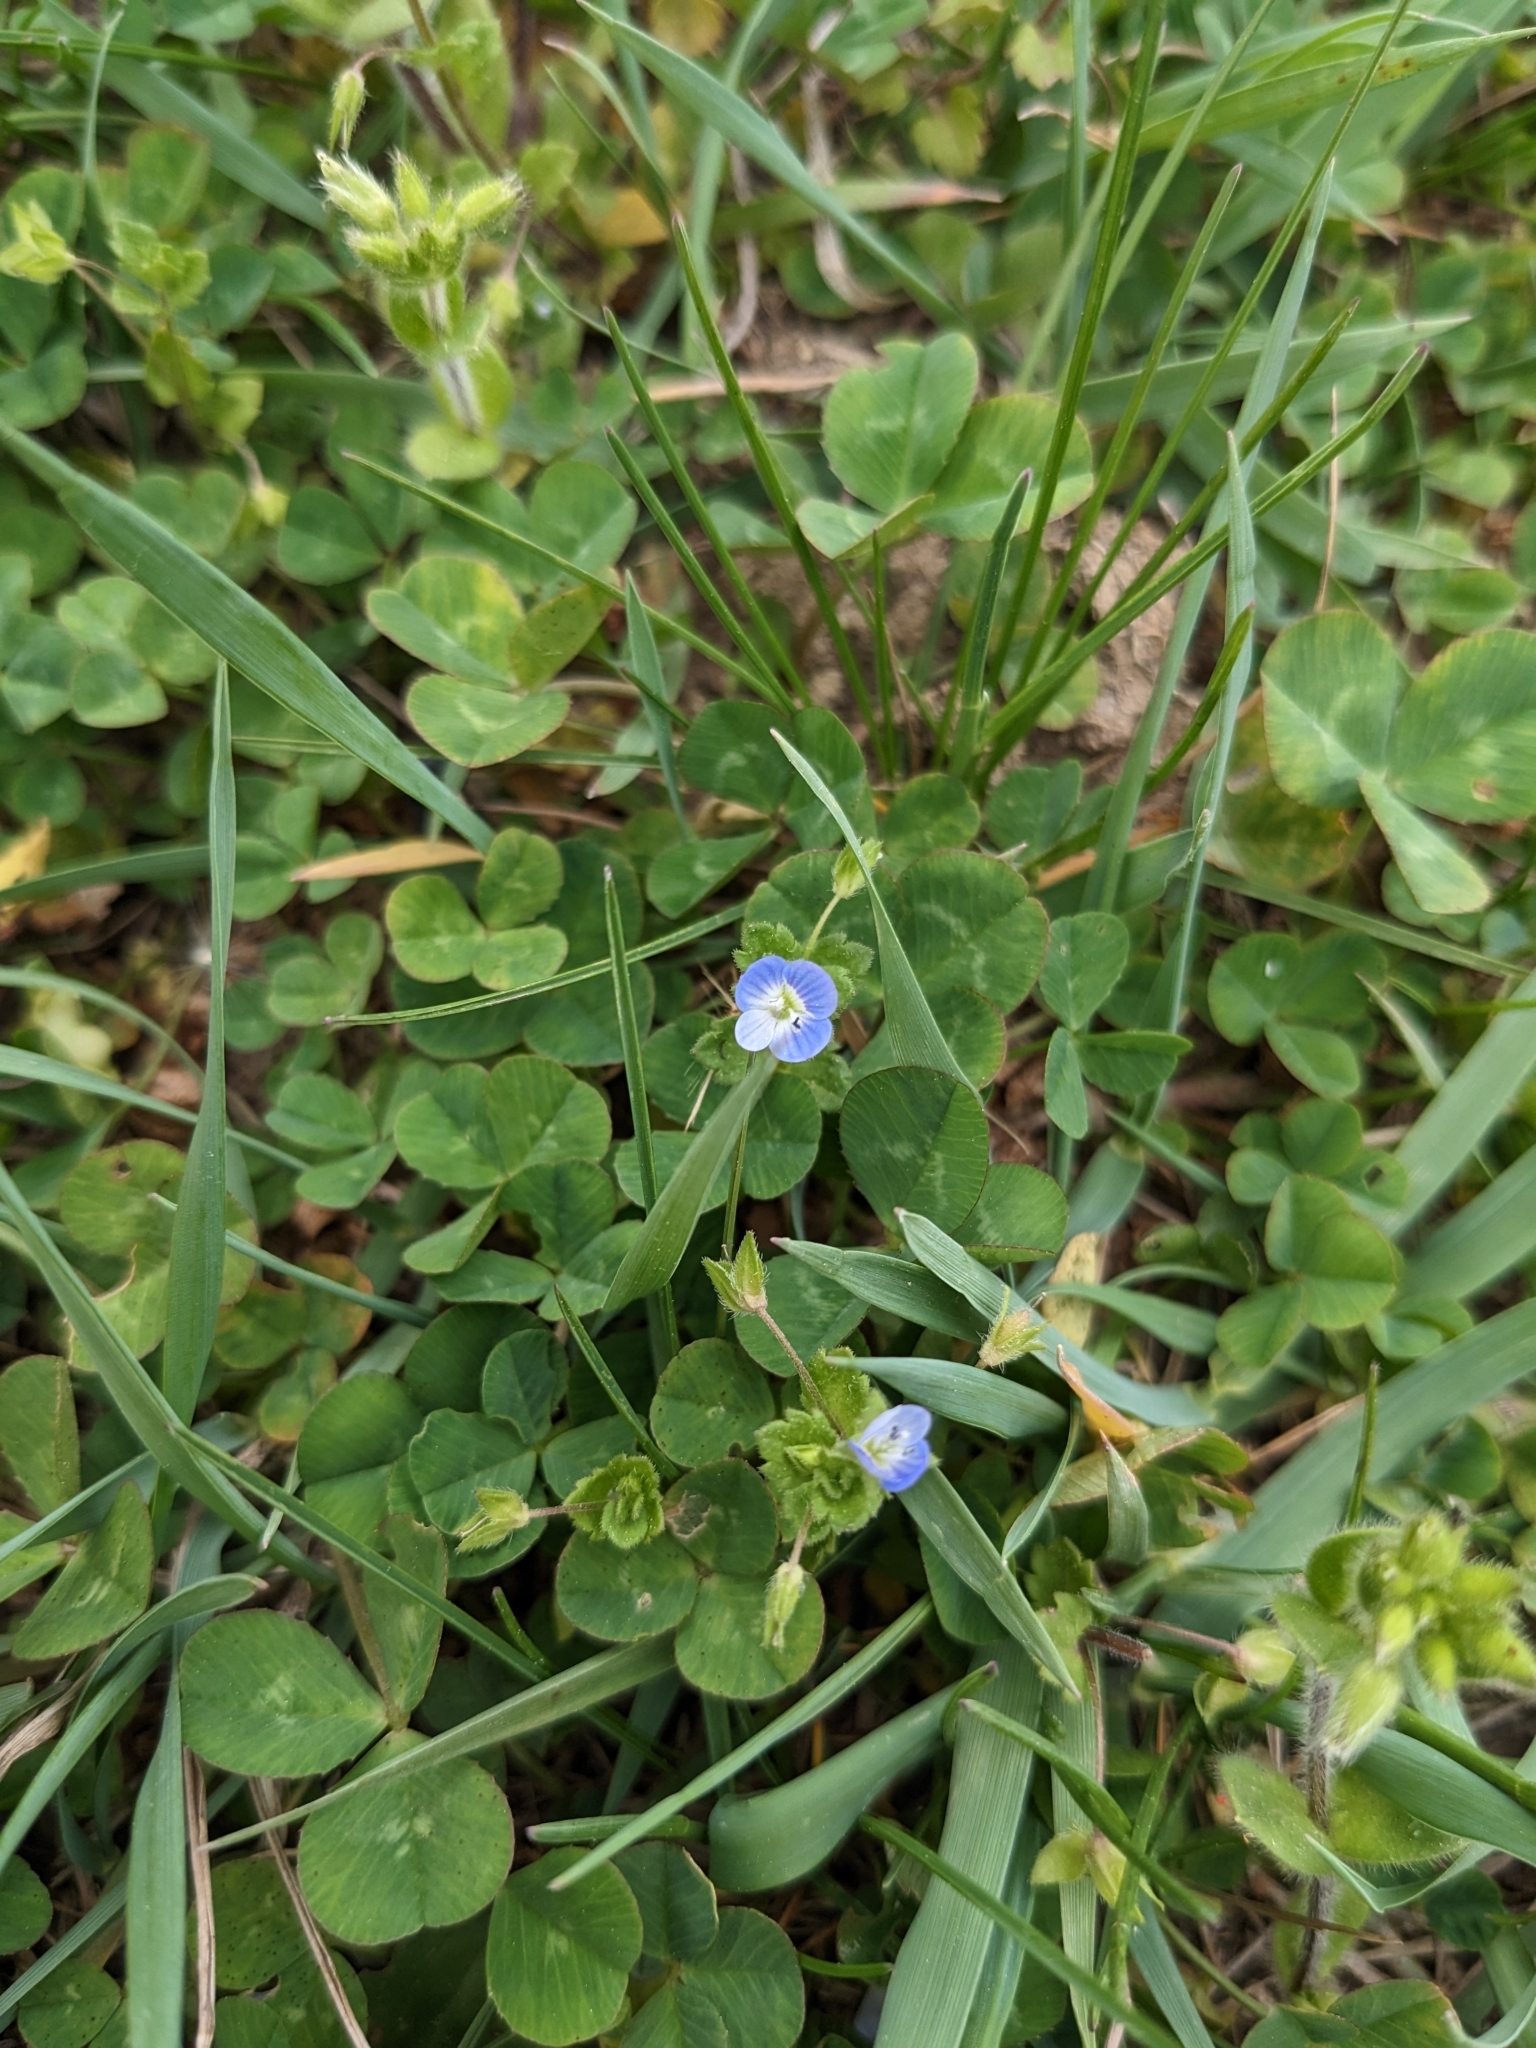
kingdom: Plantae
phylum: Tracheophyta
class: Magnoliopsida
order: Lamiales
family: Plantaginaceae
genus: Veronica
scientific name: Veronica persica
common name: Common field-speedwell
